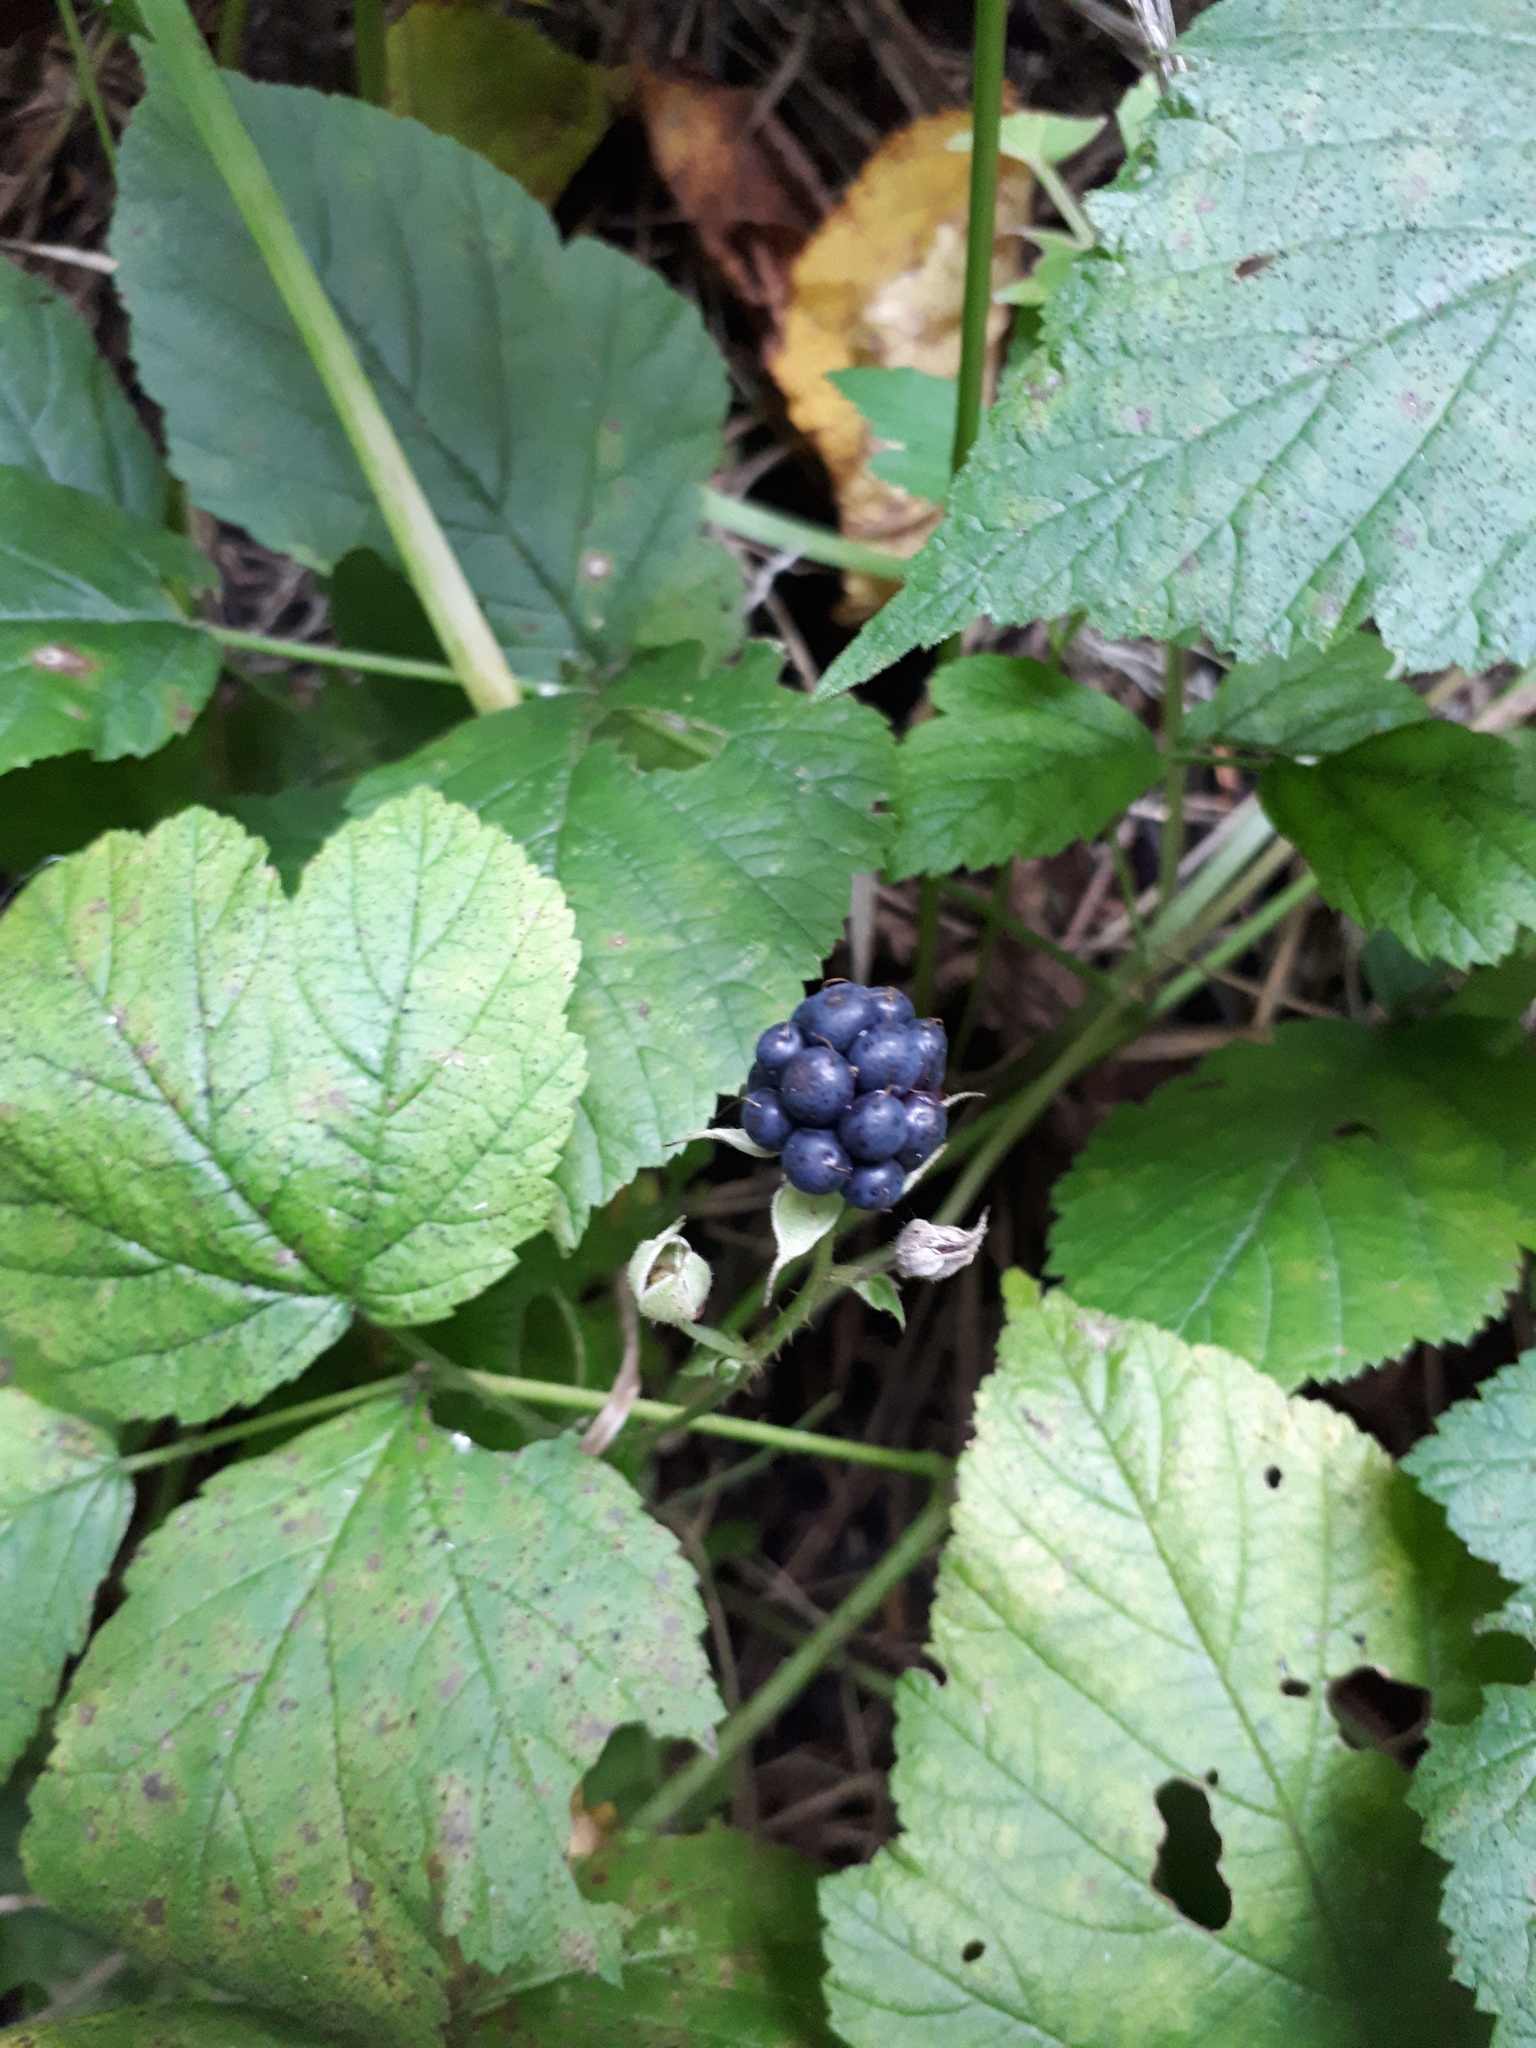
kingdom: Plantae
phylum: Tracheophyta
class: Magnoliopsida
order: Rosales
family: Rosaceae
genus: Rubus
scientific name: Rubus caesius
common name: Dewberry
